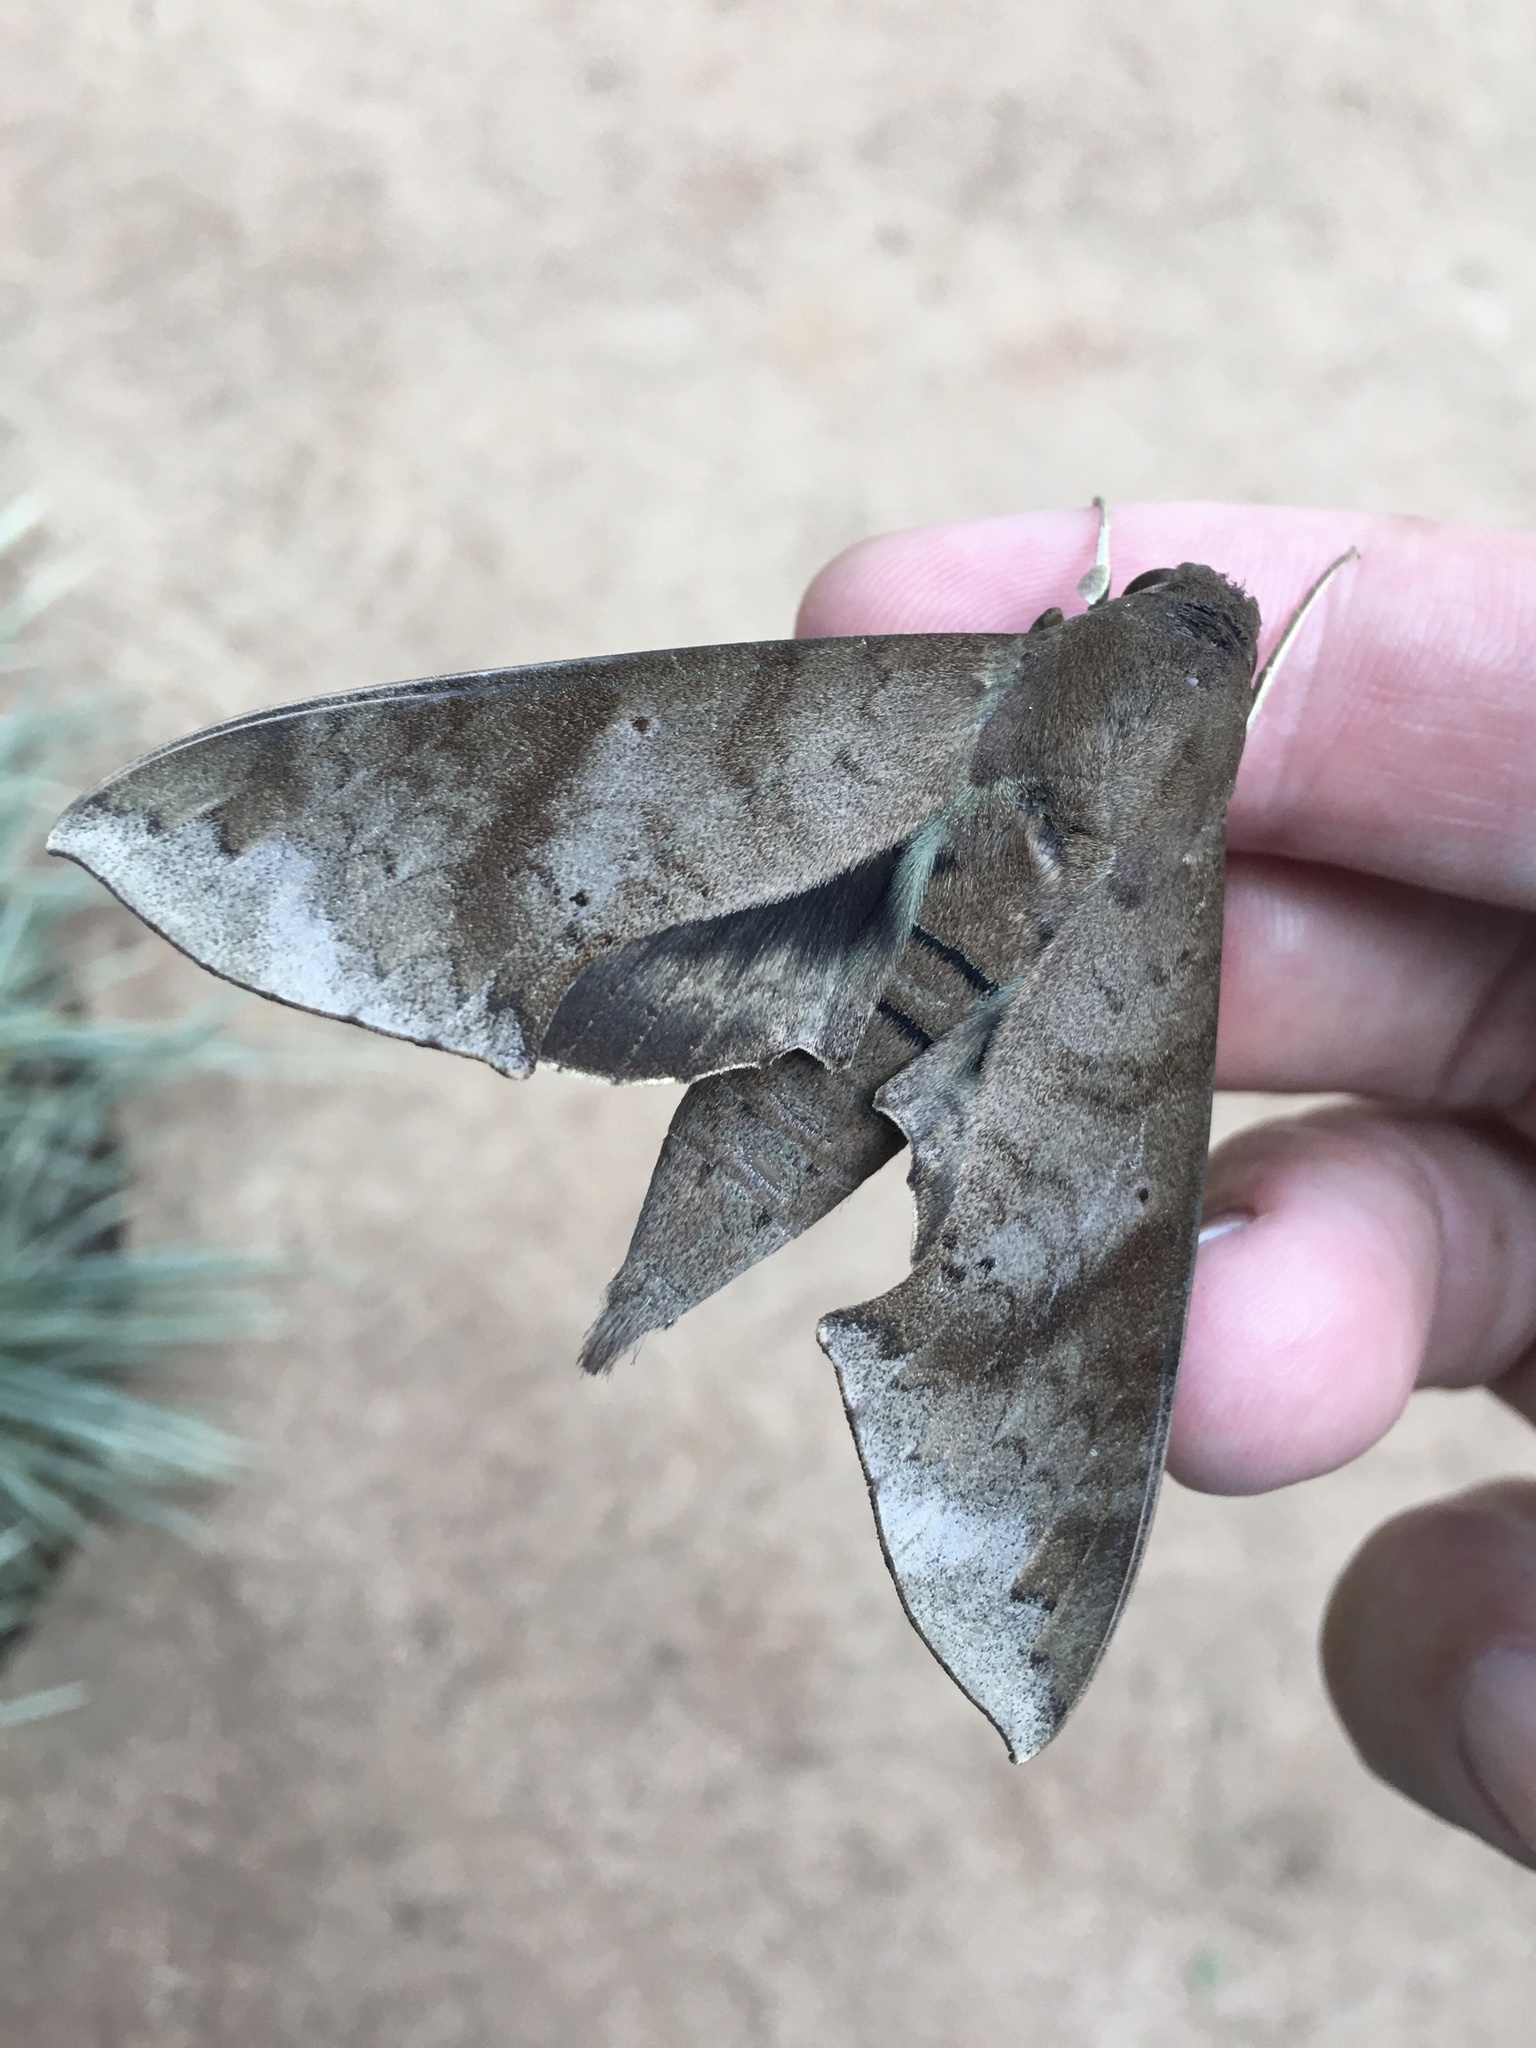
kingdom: Animalia
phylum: Arthropoda
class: Insecta
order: Lepidoptera
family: Sphingidae
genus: Pachylioides
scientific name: Pachylioides resumens
